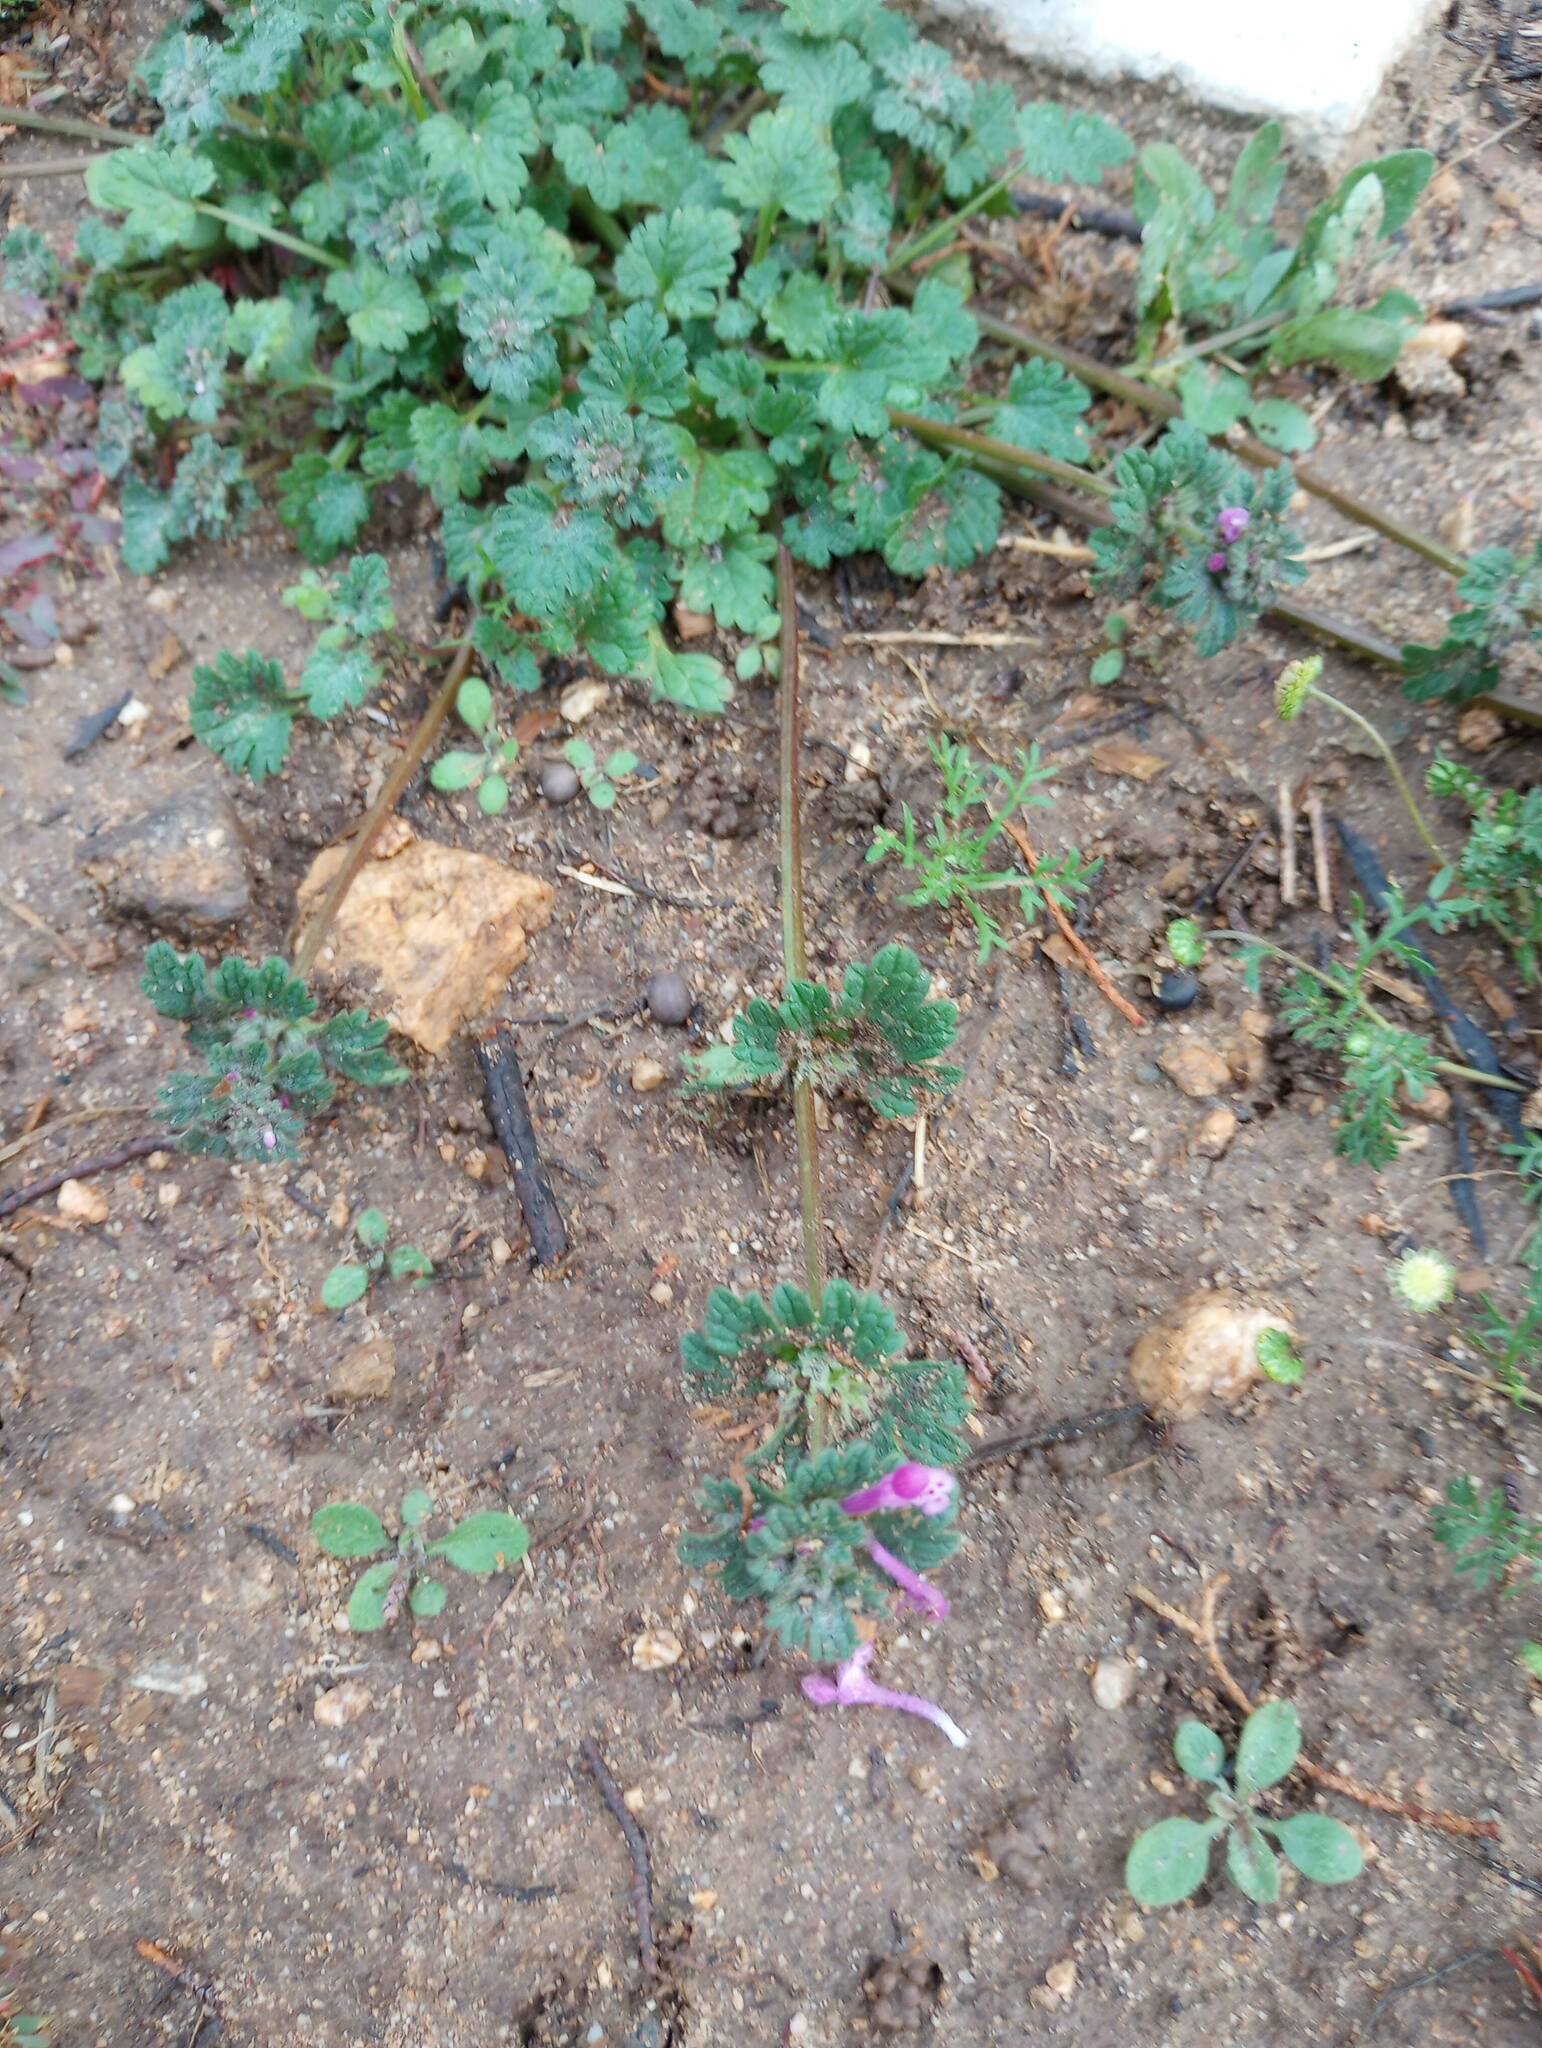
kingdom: Plantae
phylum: Tracheophyta
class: Magnoliopsida
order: Lamiales
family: Lamiaceae
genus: Lamium
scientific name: Lamium amplexicaule
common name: Henbit dead-nettle
